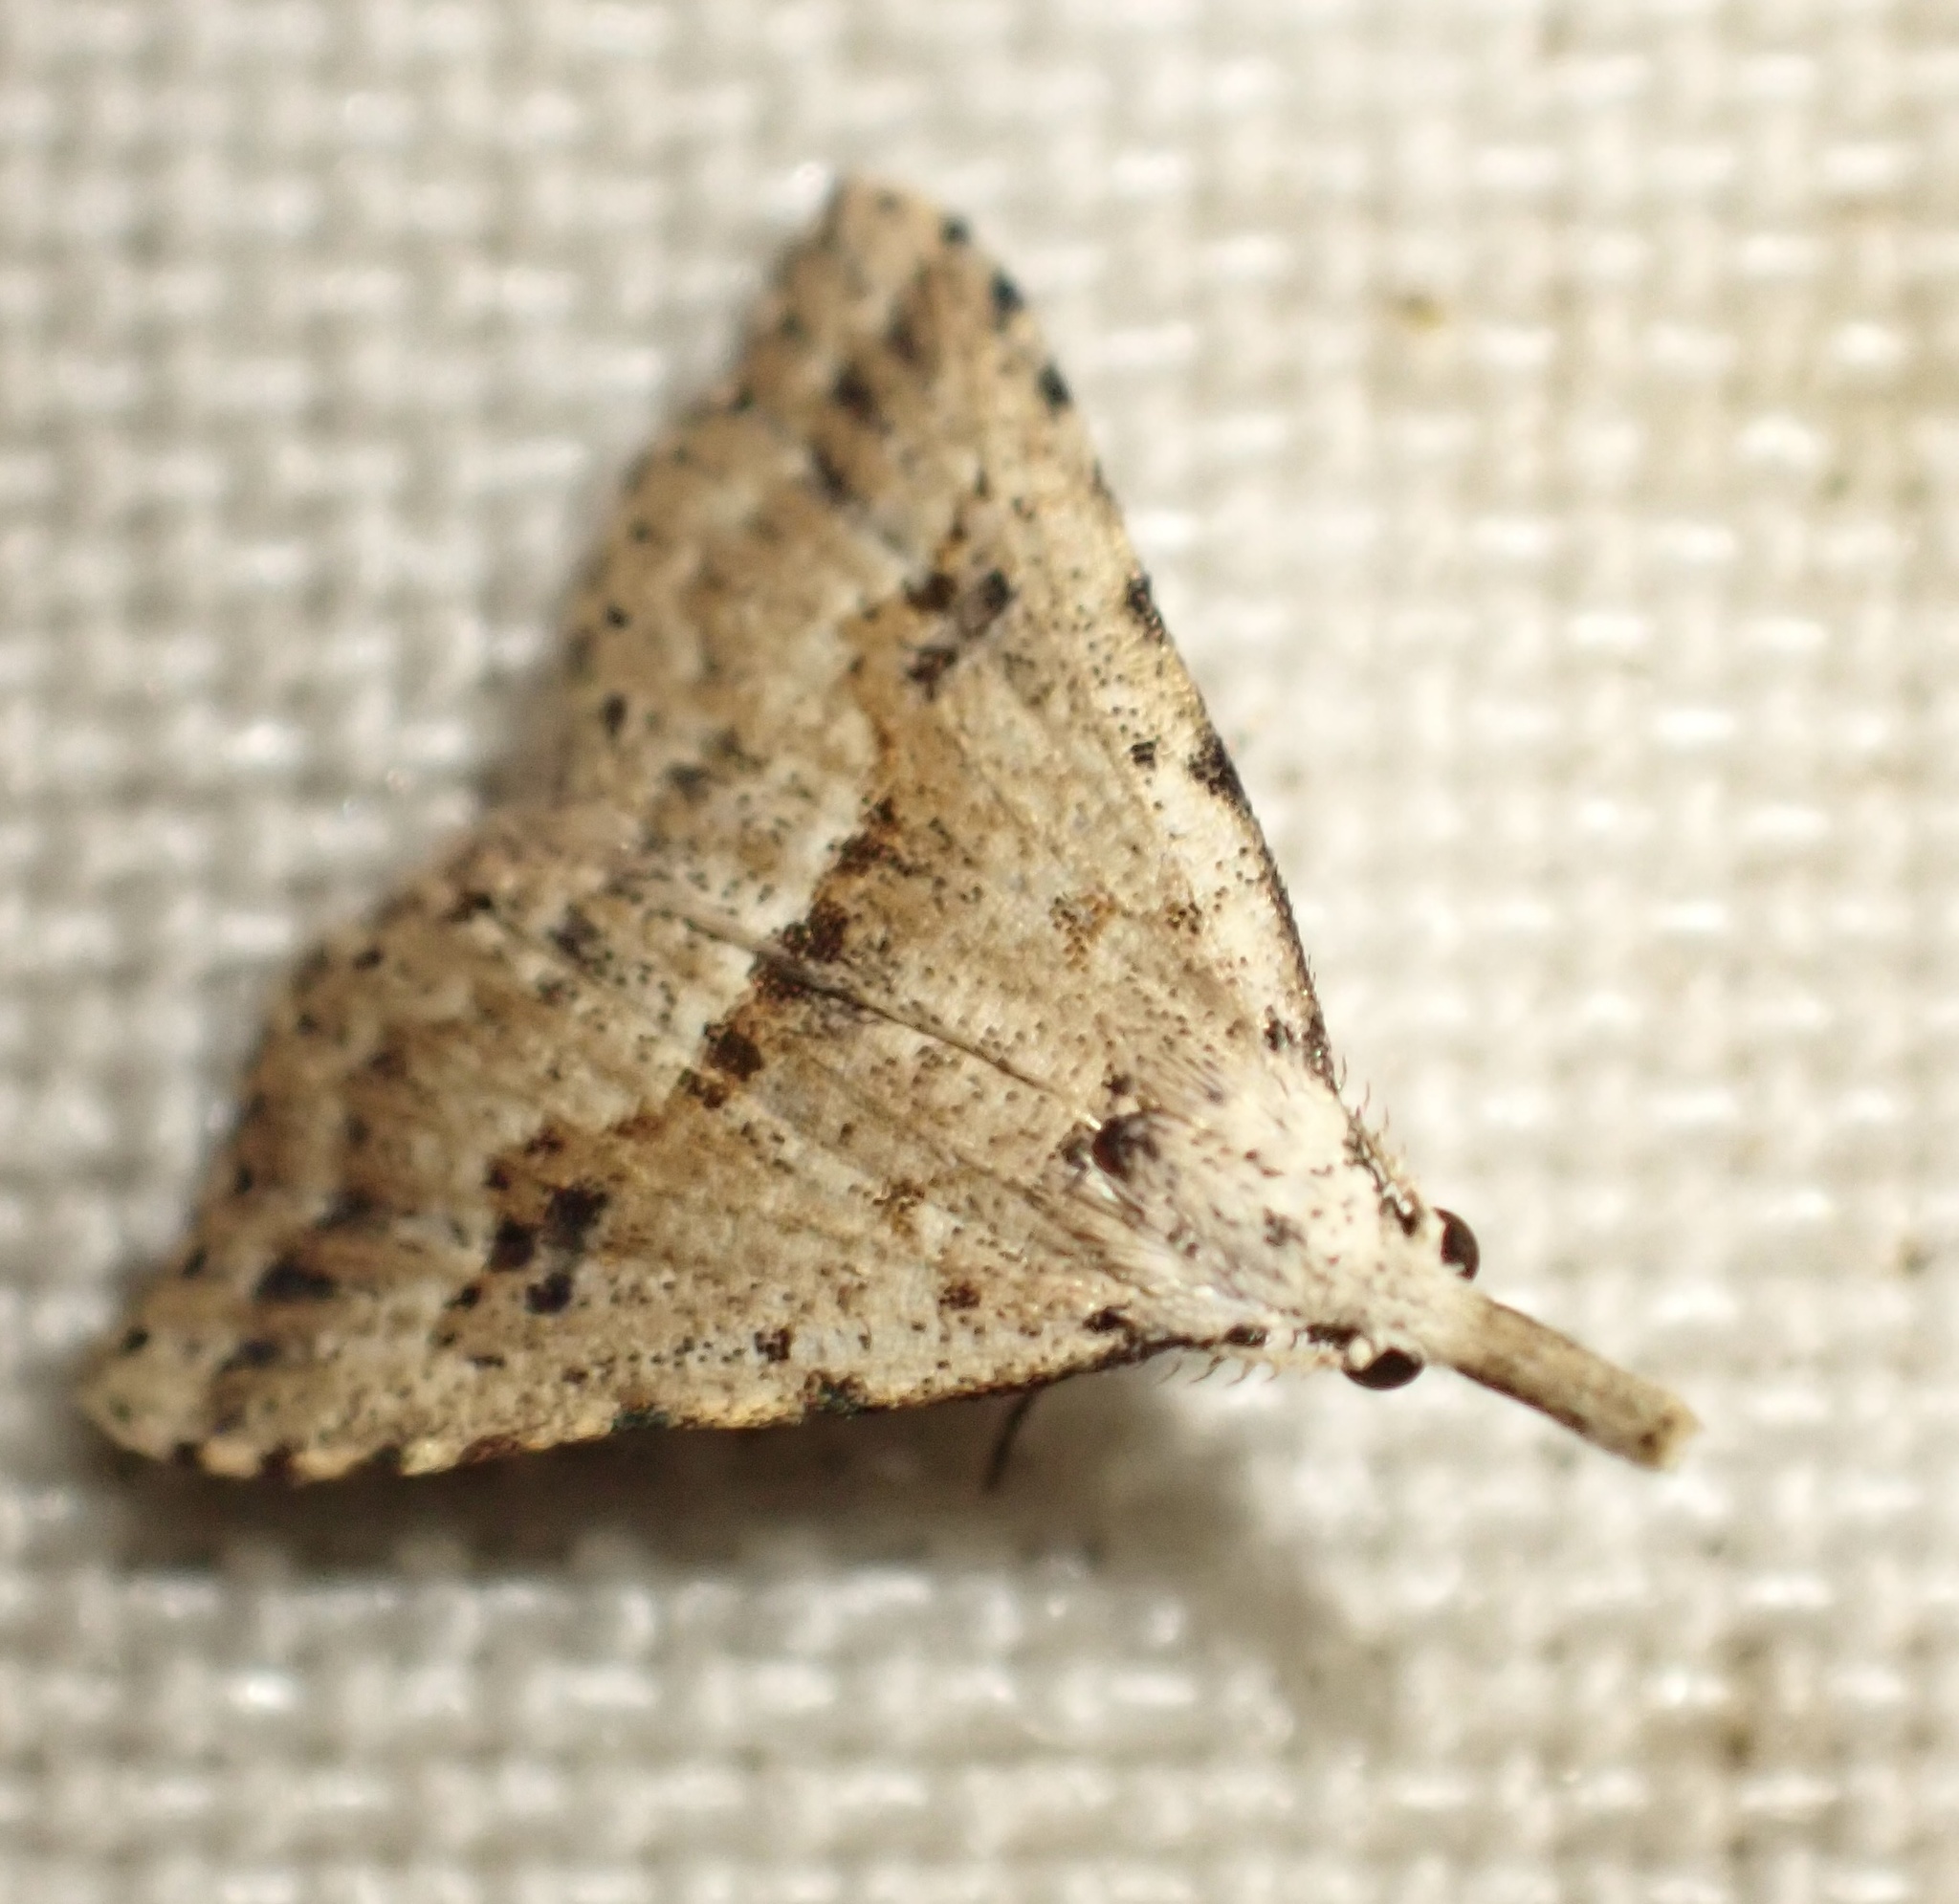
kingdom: Animalia
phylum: Arthropoda
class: Insecta
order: Lepidoptera
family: Erebidae
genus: Trigonistis
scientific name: Trigonistis asthenopa
